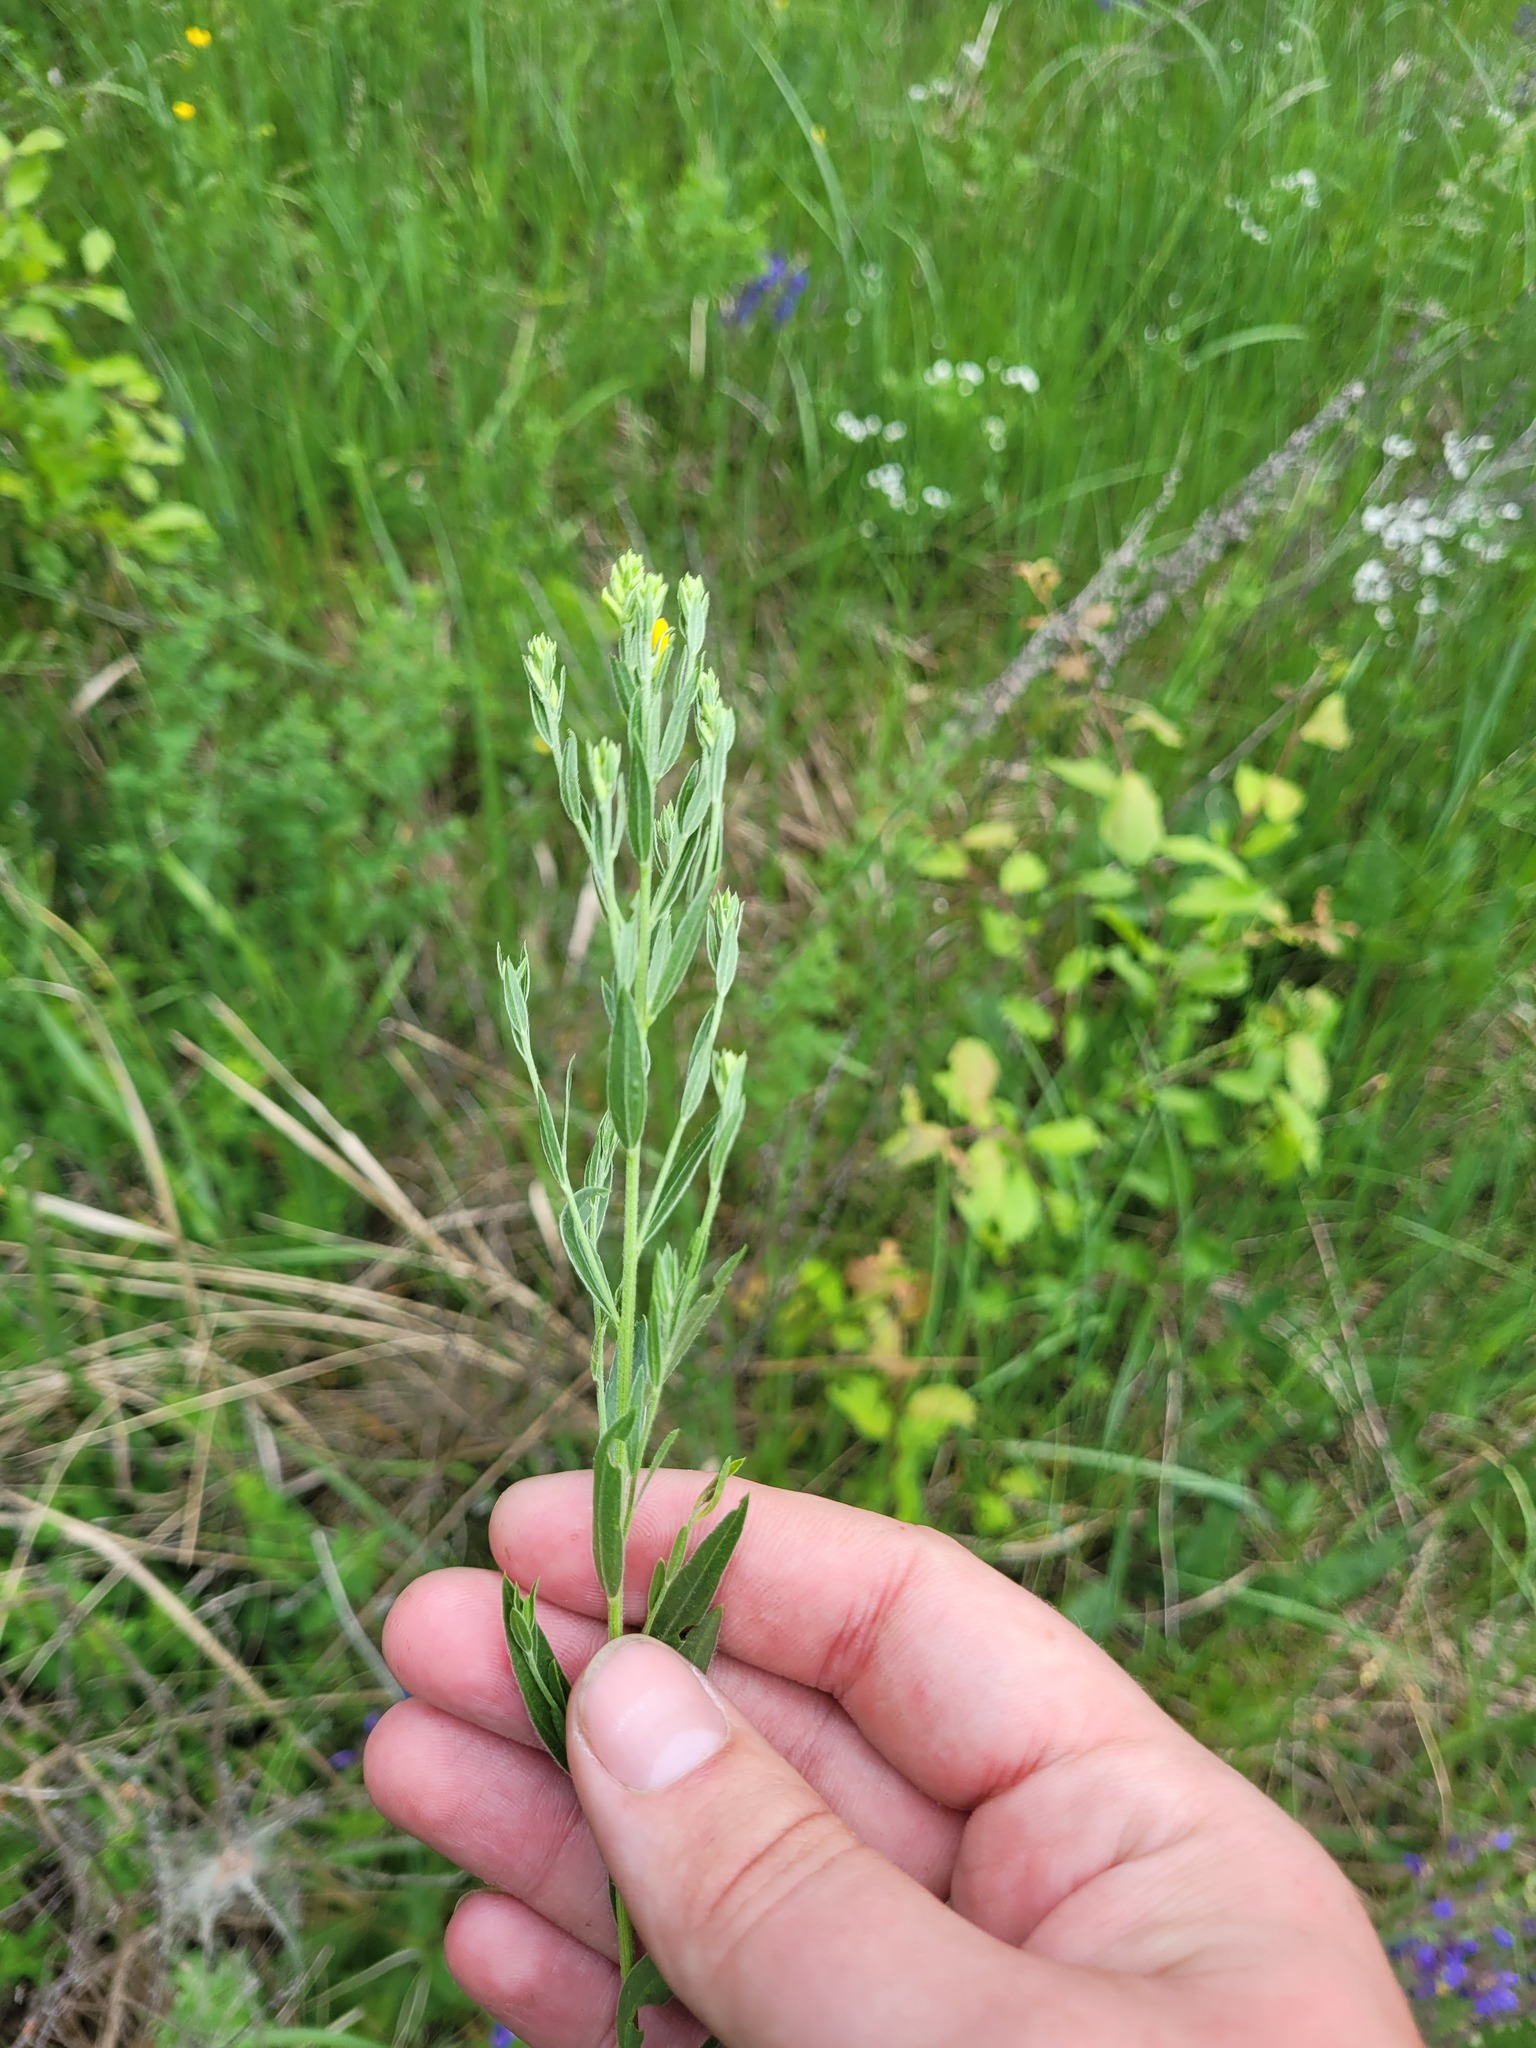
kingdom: Plantae
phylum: Tracheophyta
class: Magnoliopsida
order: Fabales
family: Fabaceae
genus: Genista
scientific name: Genista tinctoria
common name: Dyer's greenweed
